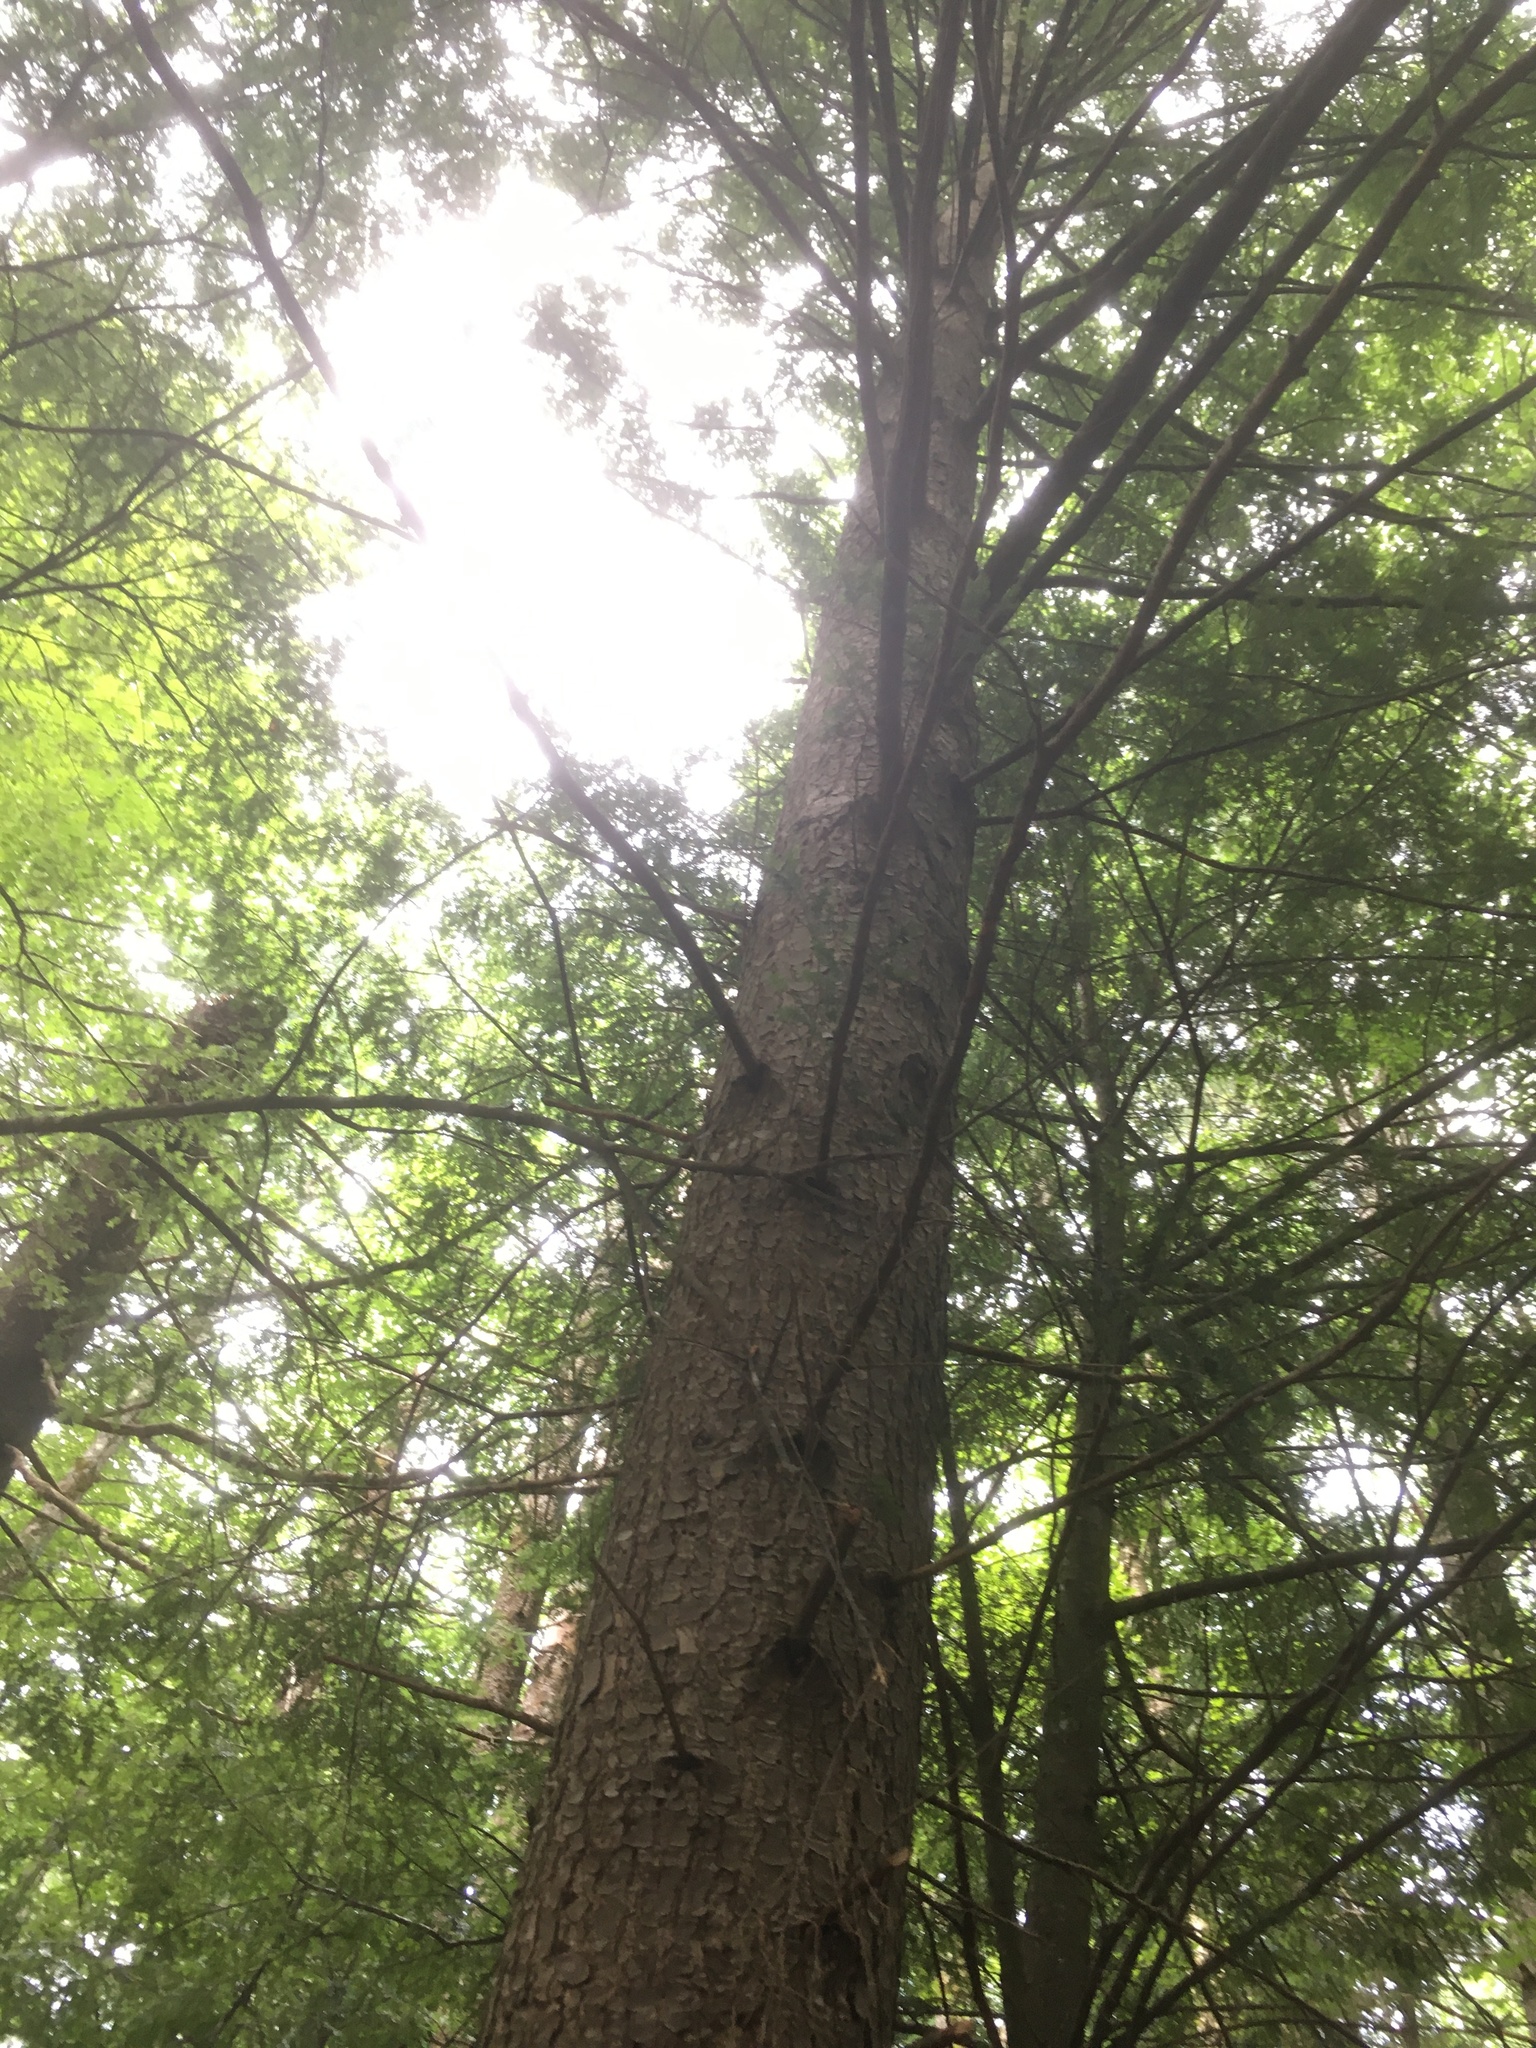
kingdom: Plantae
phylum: Tracheophyta
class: Pinopsida
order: Pinales
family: Pinaceae
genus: Tsuga
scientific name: Tsuga canadensis
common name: Eastern hemlock
